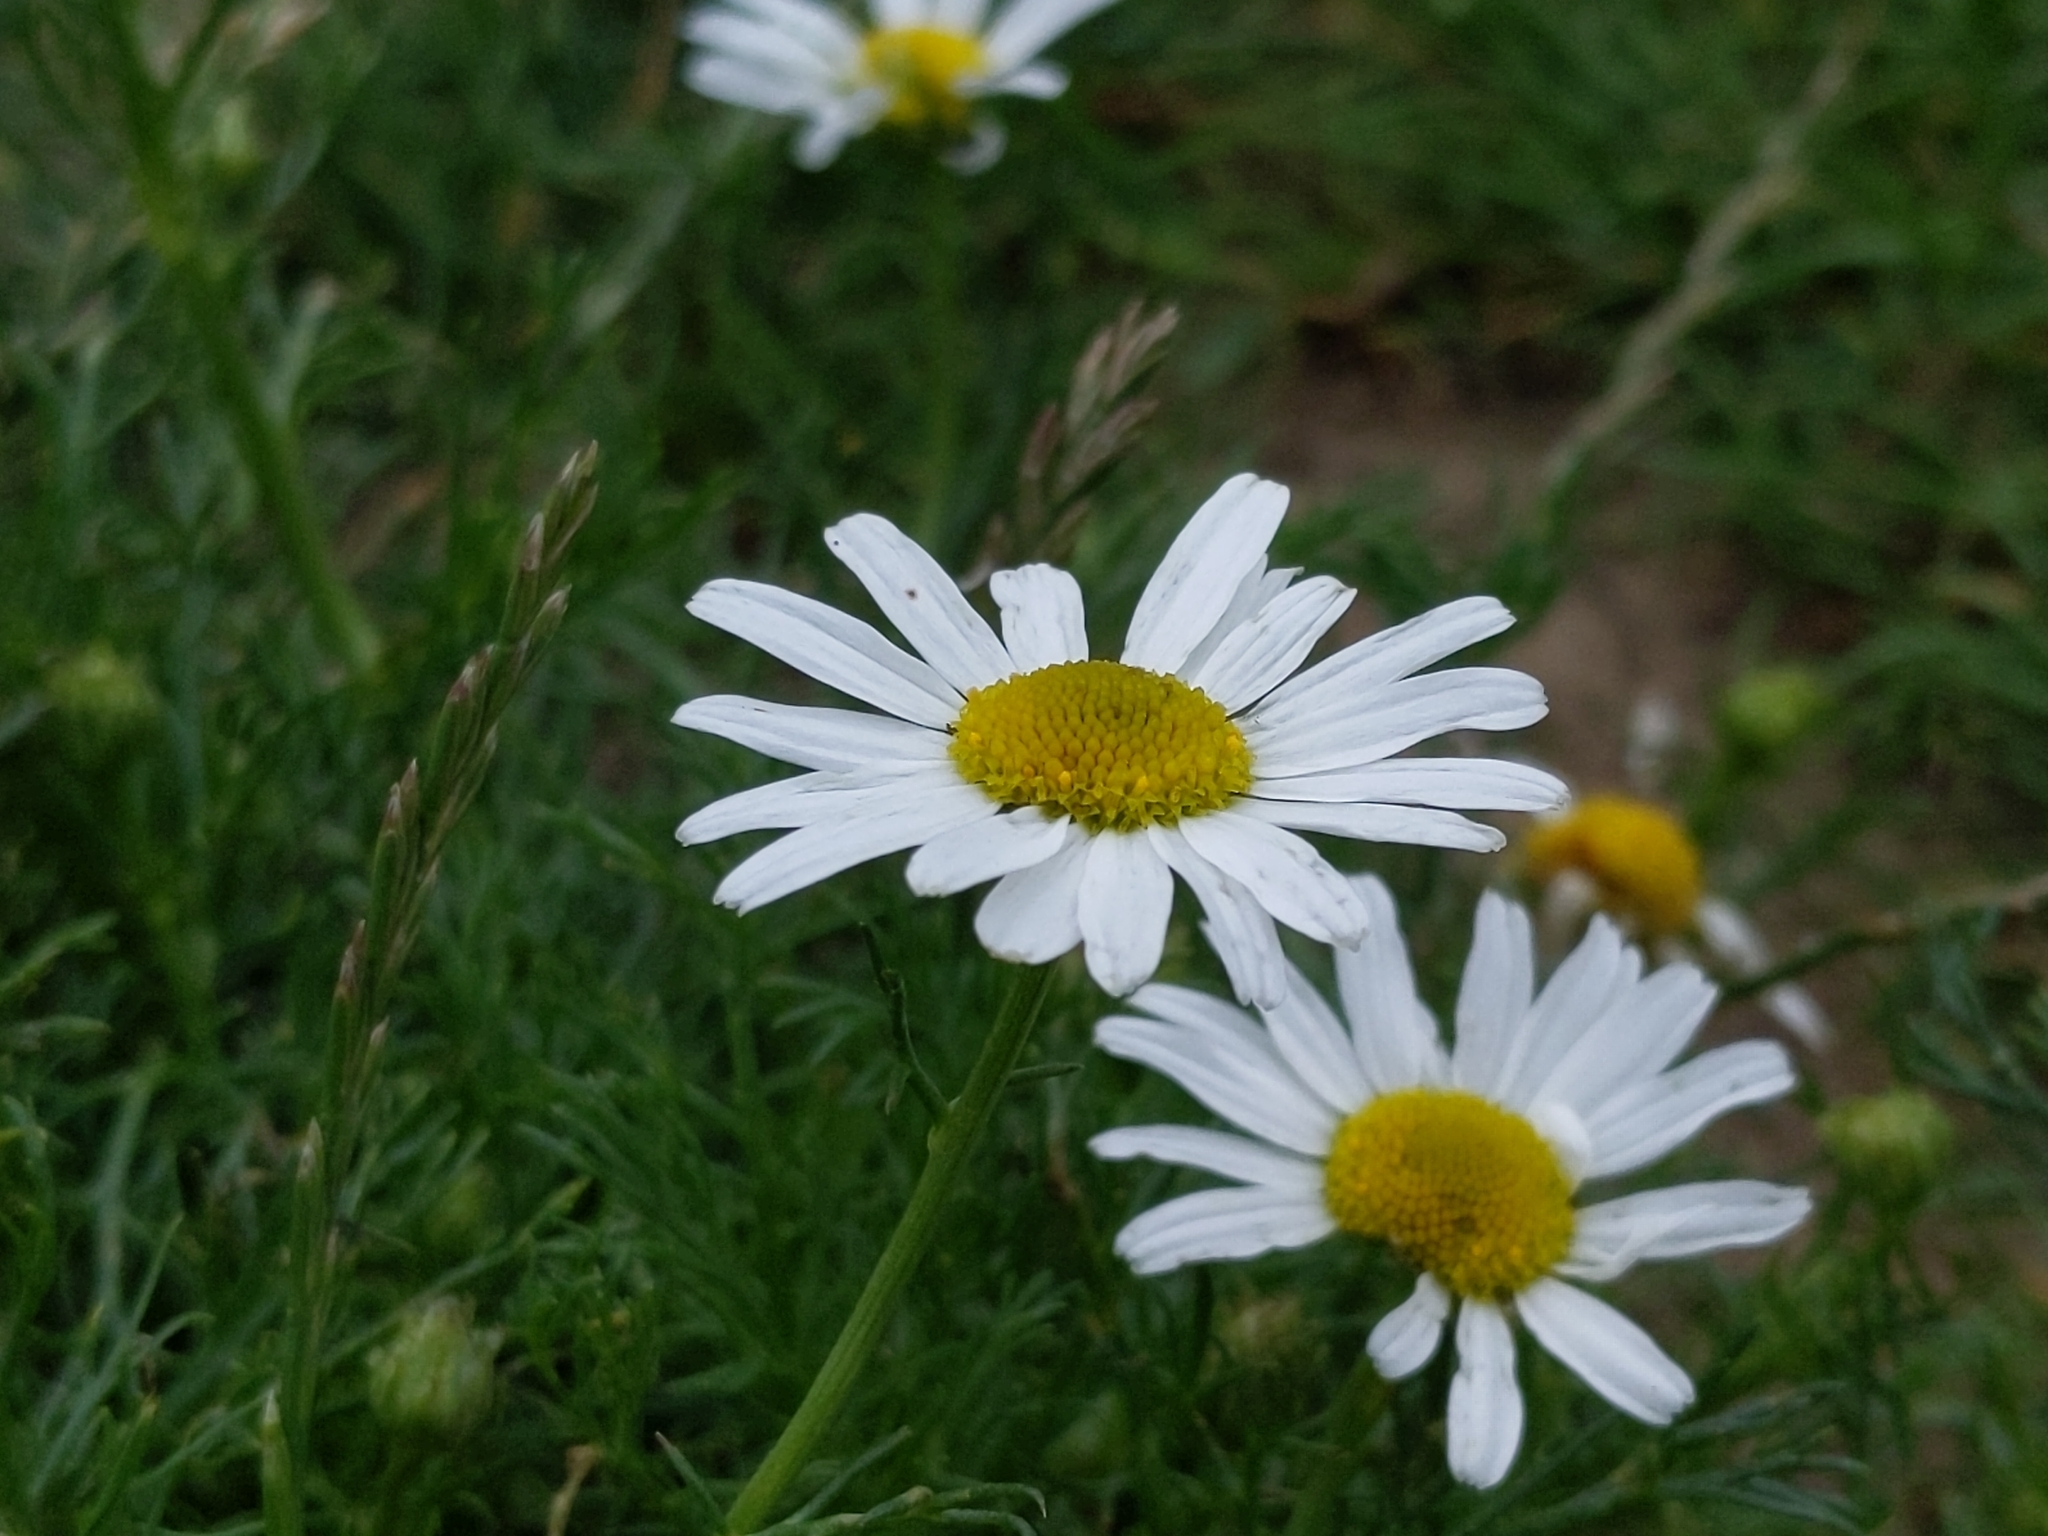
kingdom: Plantae
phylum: Tracheophyta
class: Magnoliopsida
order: Asterales
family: Asteraceae
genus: Tripleurospermum
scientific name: Tripleurospermum inodorum
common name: Scentless mayweed
